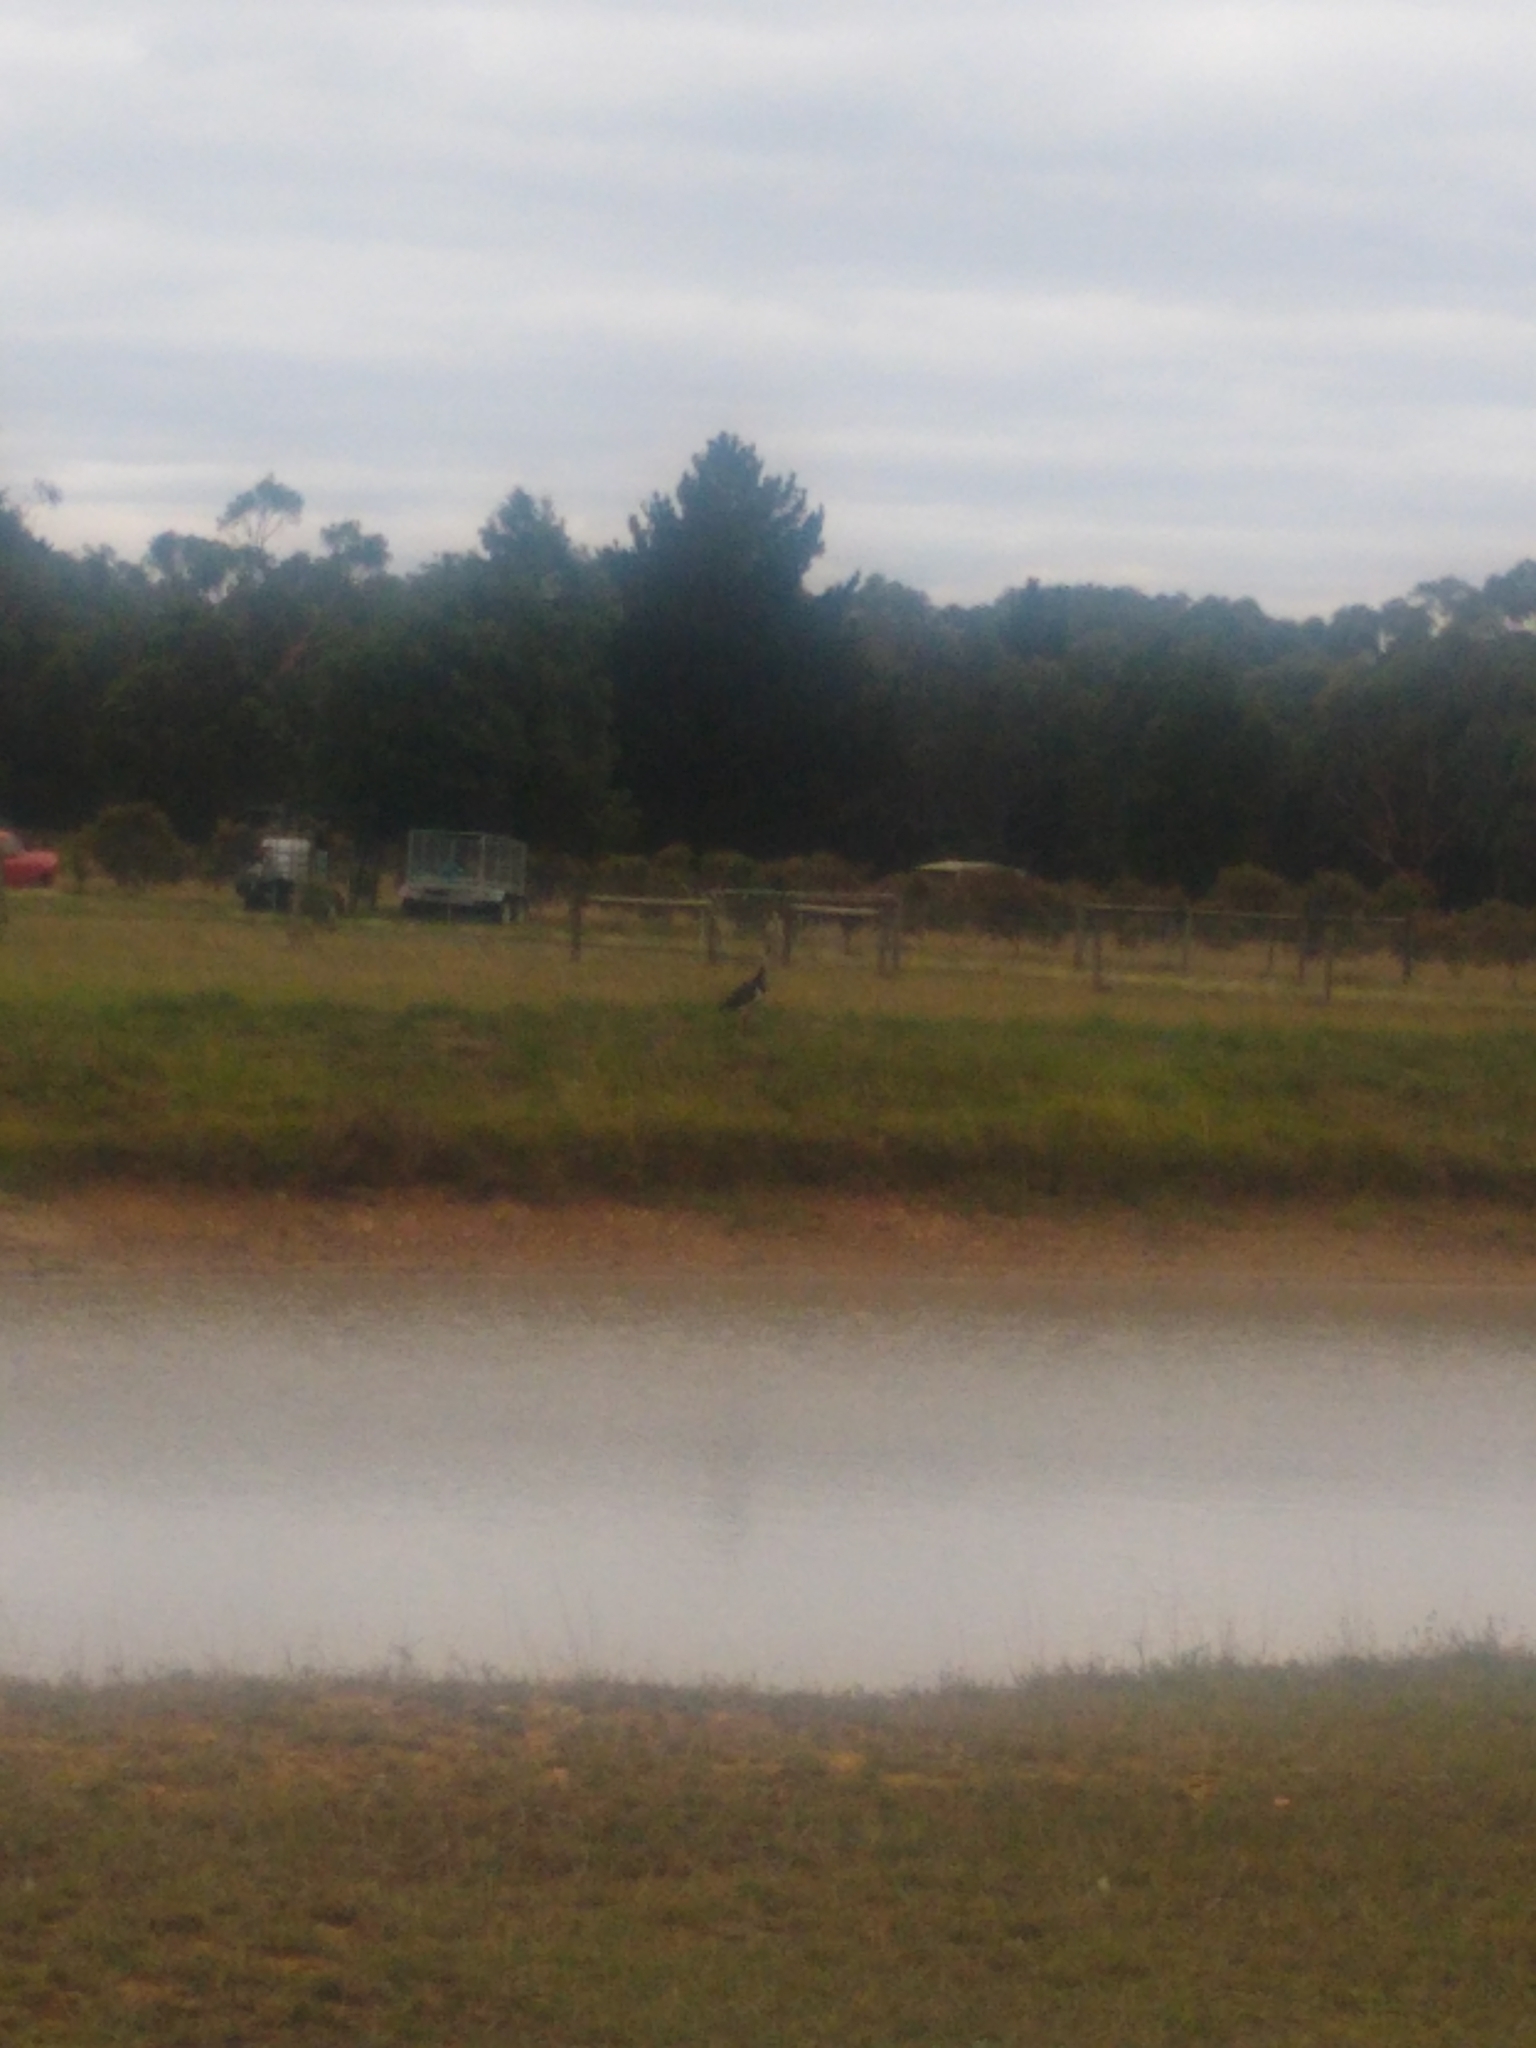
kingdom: Animalia
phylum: Chordata
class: Aves
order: Pelecaniformes
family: Threskiornithidae
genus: Threskiornis
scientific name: Threskiornis spinicollis
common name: Straw-necked ibis
